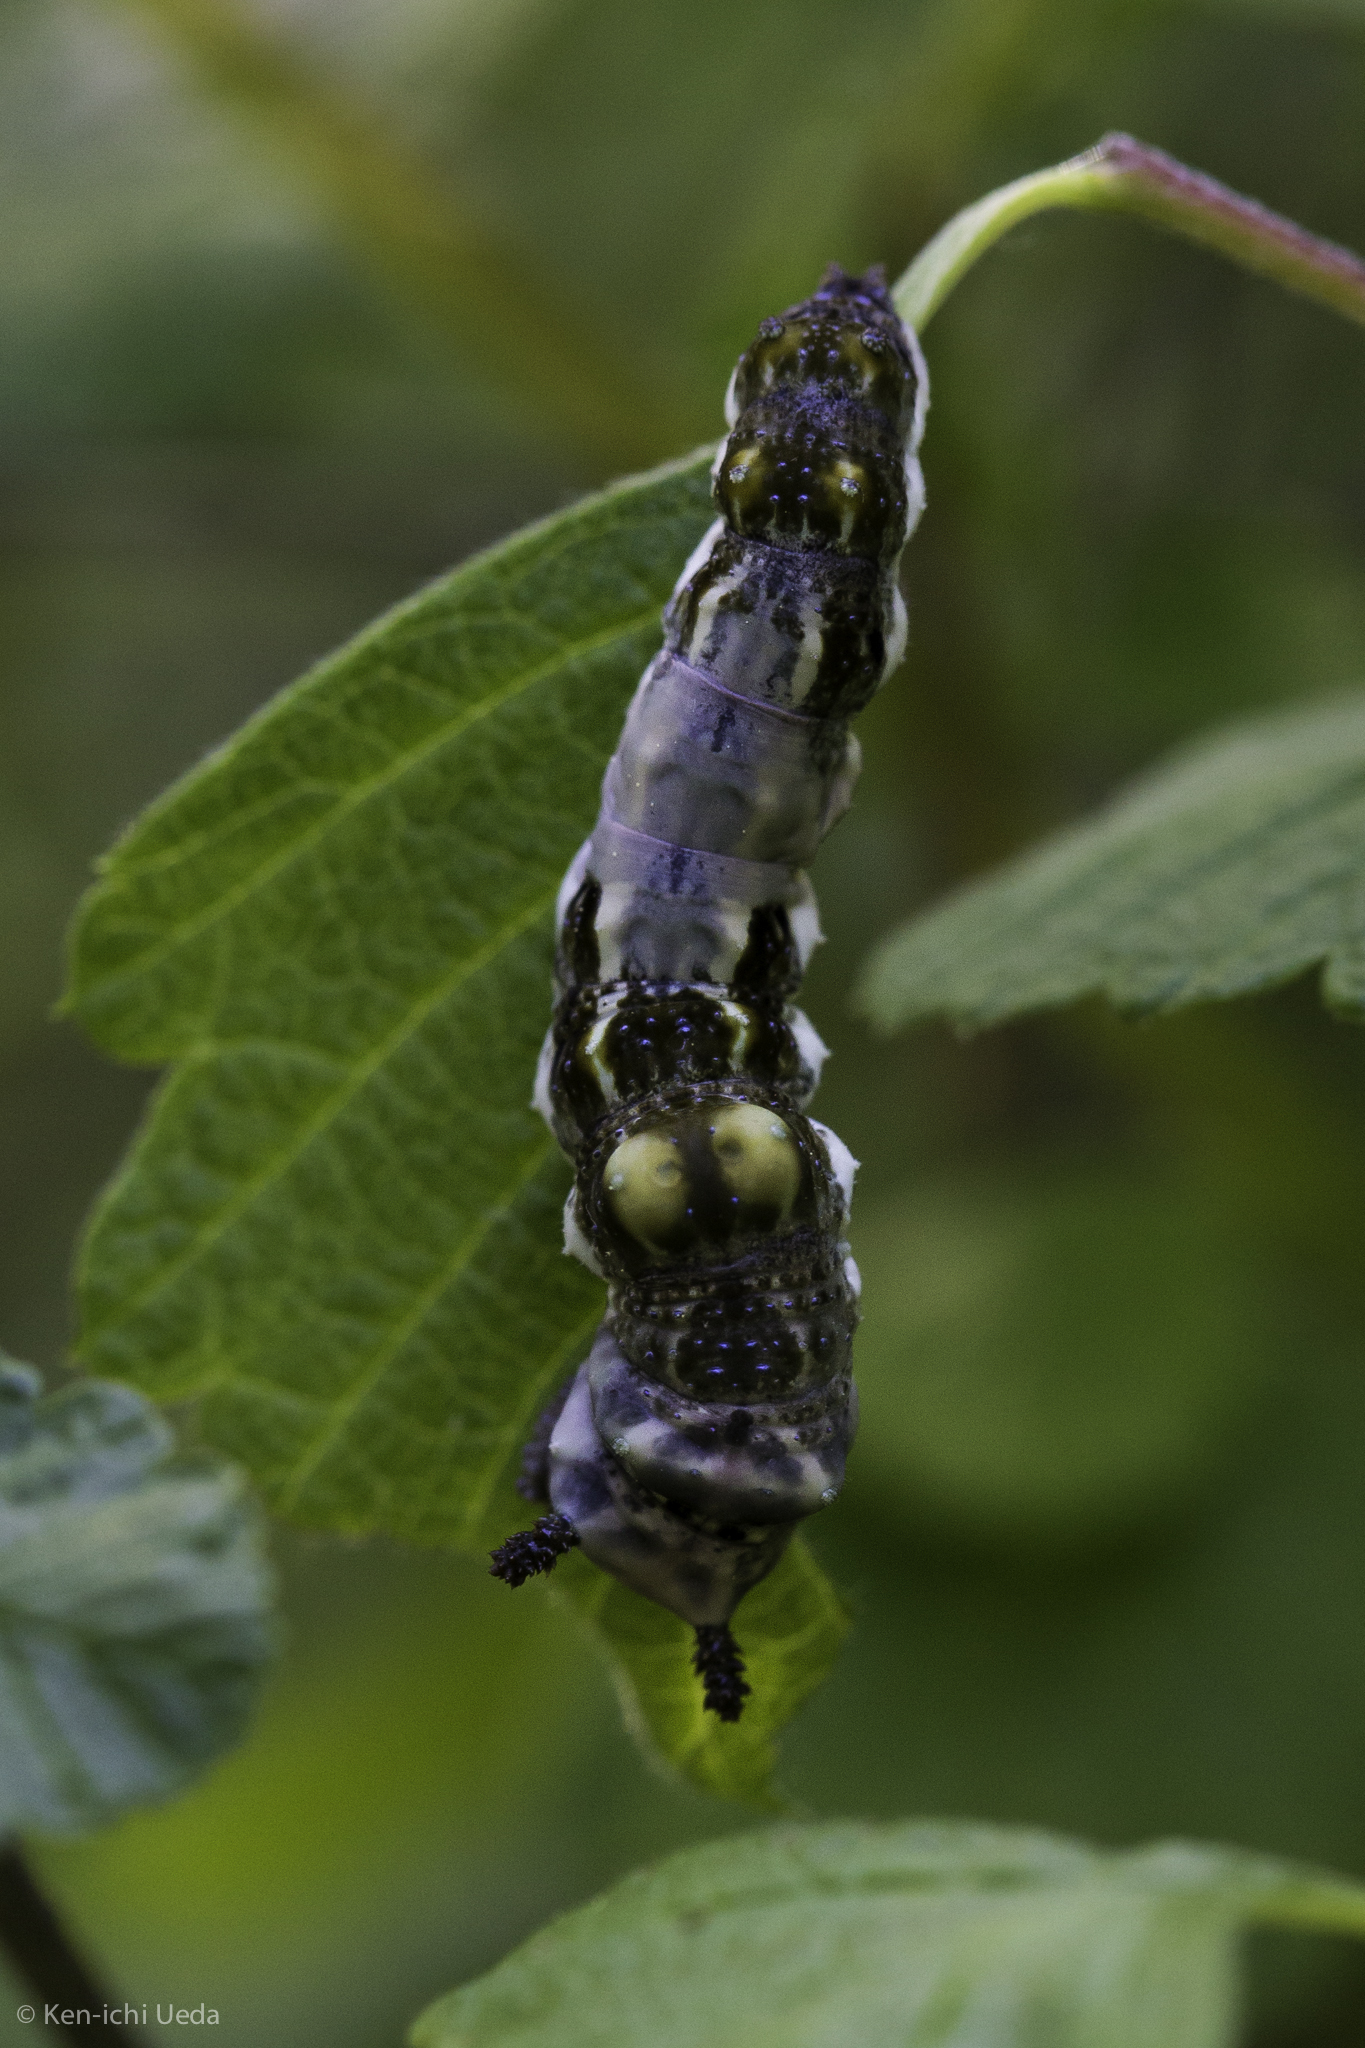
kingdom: Animalia
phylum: Arthropoda
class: Insecta
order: Lepidoptera
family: Nymphalidae
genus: Limenitis
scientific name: Limenitis lorquini
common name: Lorquin's admiral
